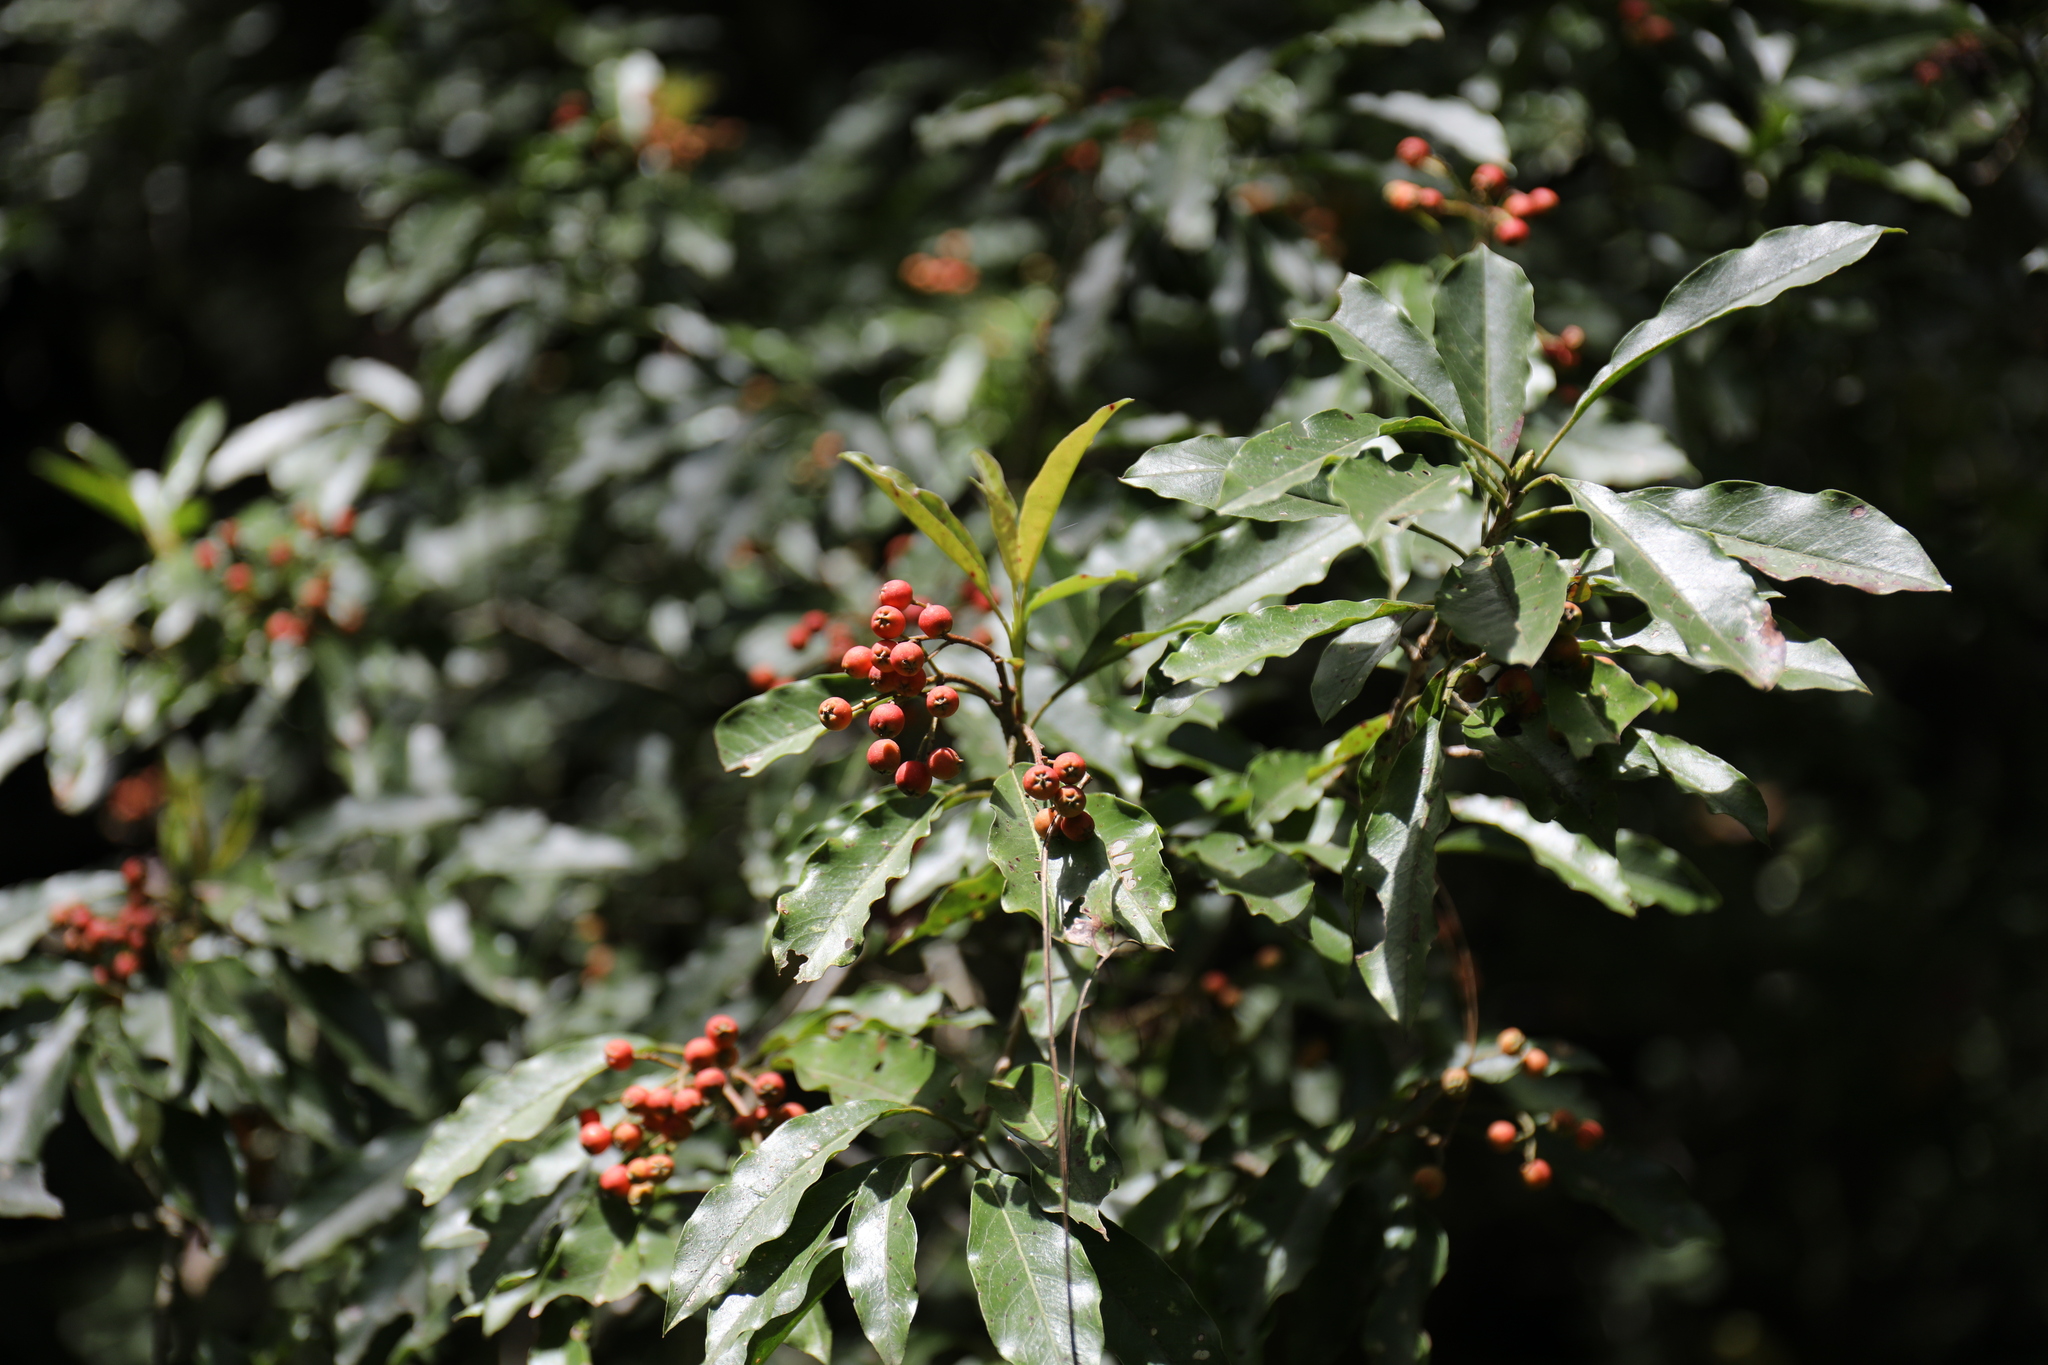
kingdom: Plantae
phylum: Tracheophyta
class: Magnoliopsida
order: Rosales
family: Rosaceae
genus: Stranvaesia
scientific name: Stranvaesia davidiana
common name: Chinese photinia
